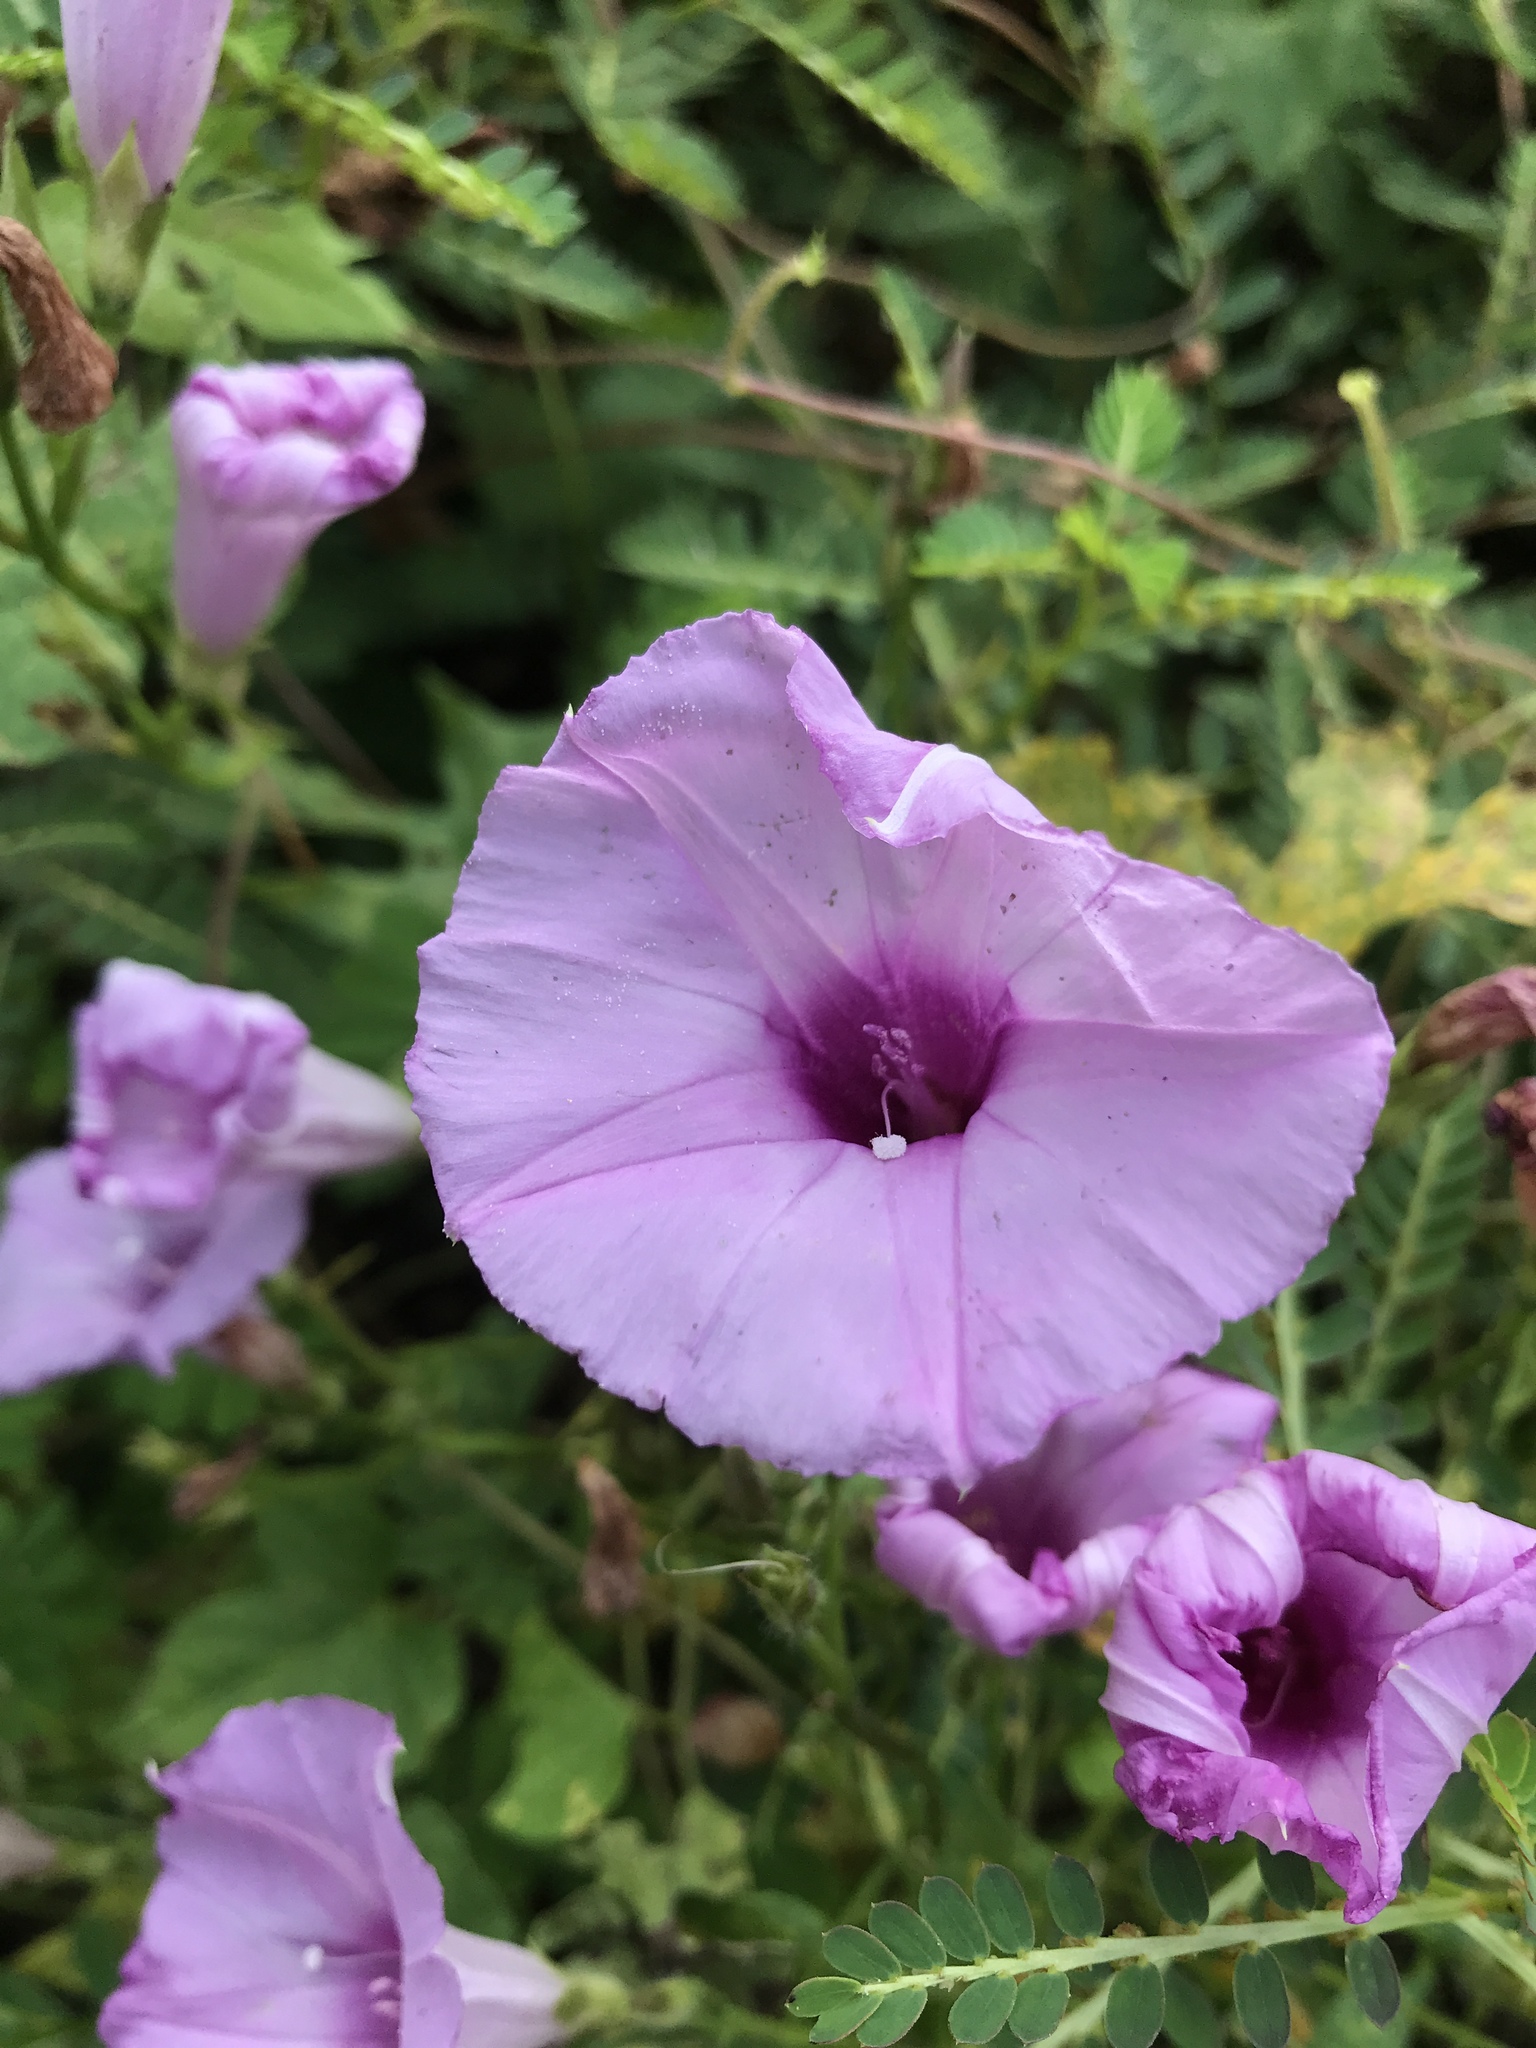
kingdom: Plantae
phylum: Tracheophyta
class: Magnoliopsida
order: Solanales
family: Convolvulaceae
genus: Ipomoea
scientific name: Ipomoea cordatotriloba
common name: Cotton morning glory
